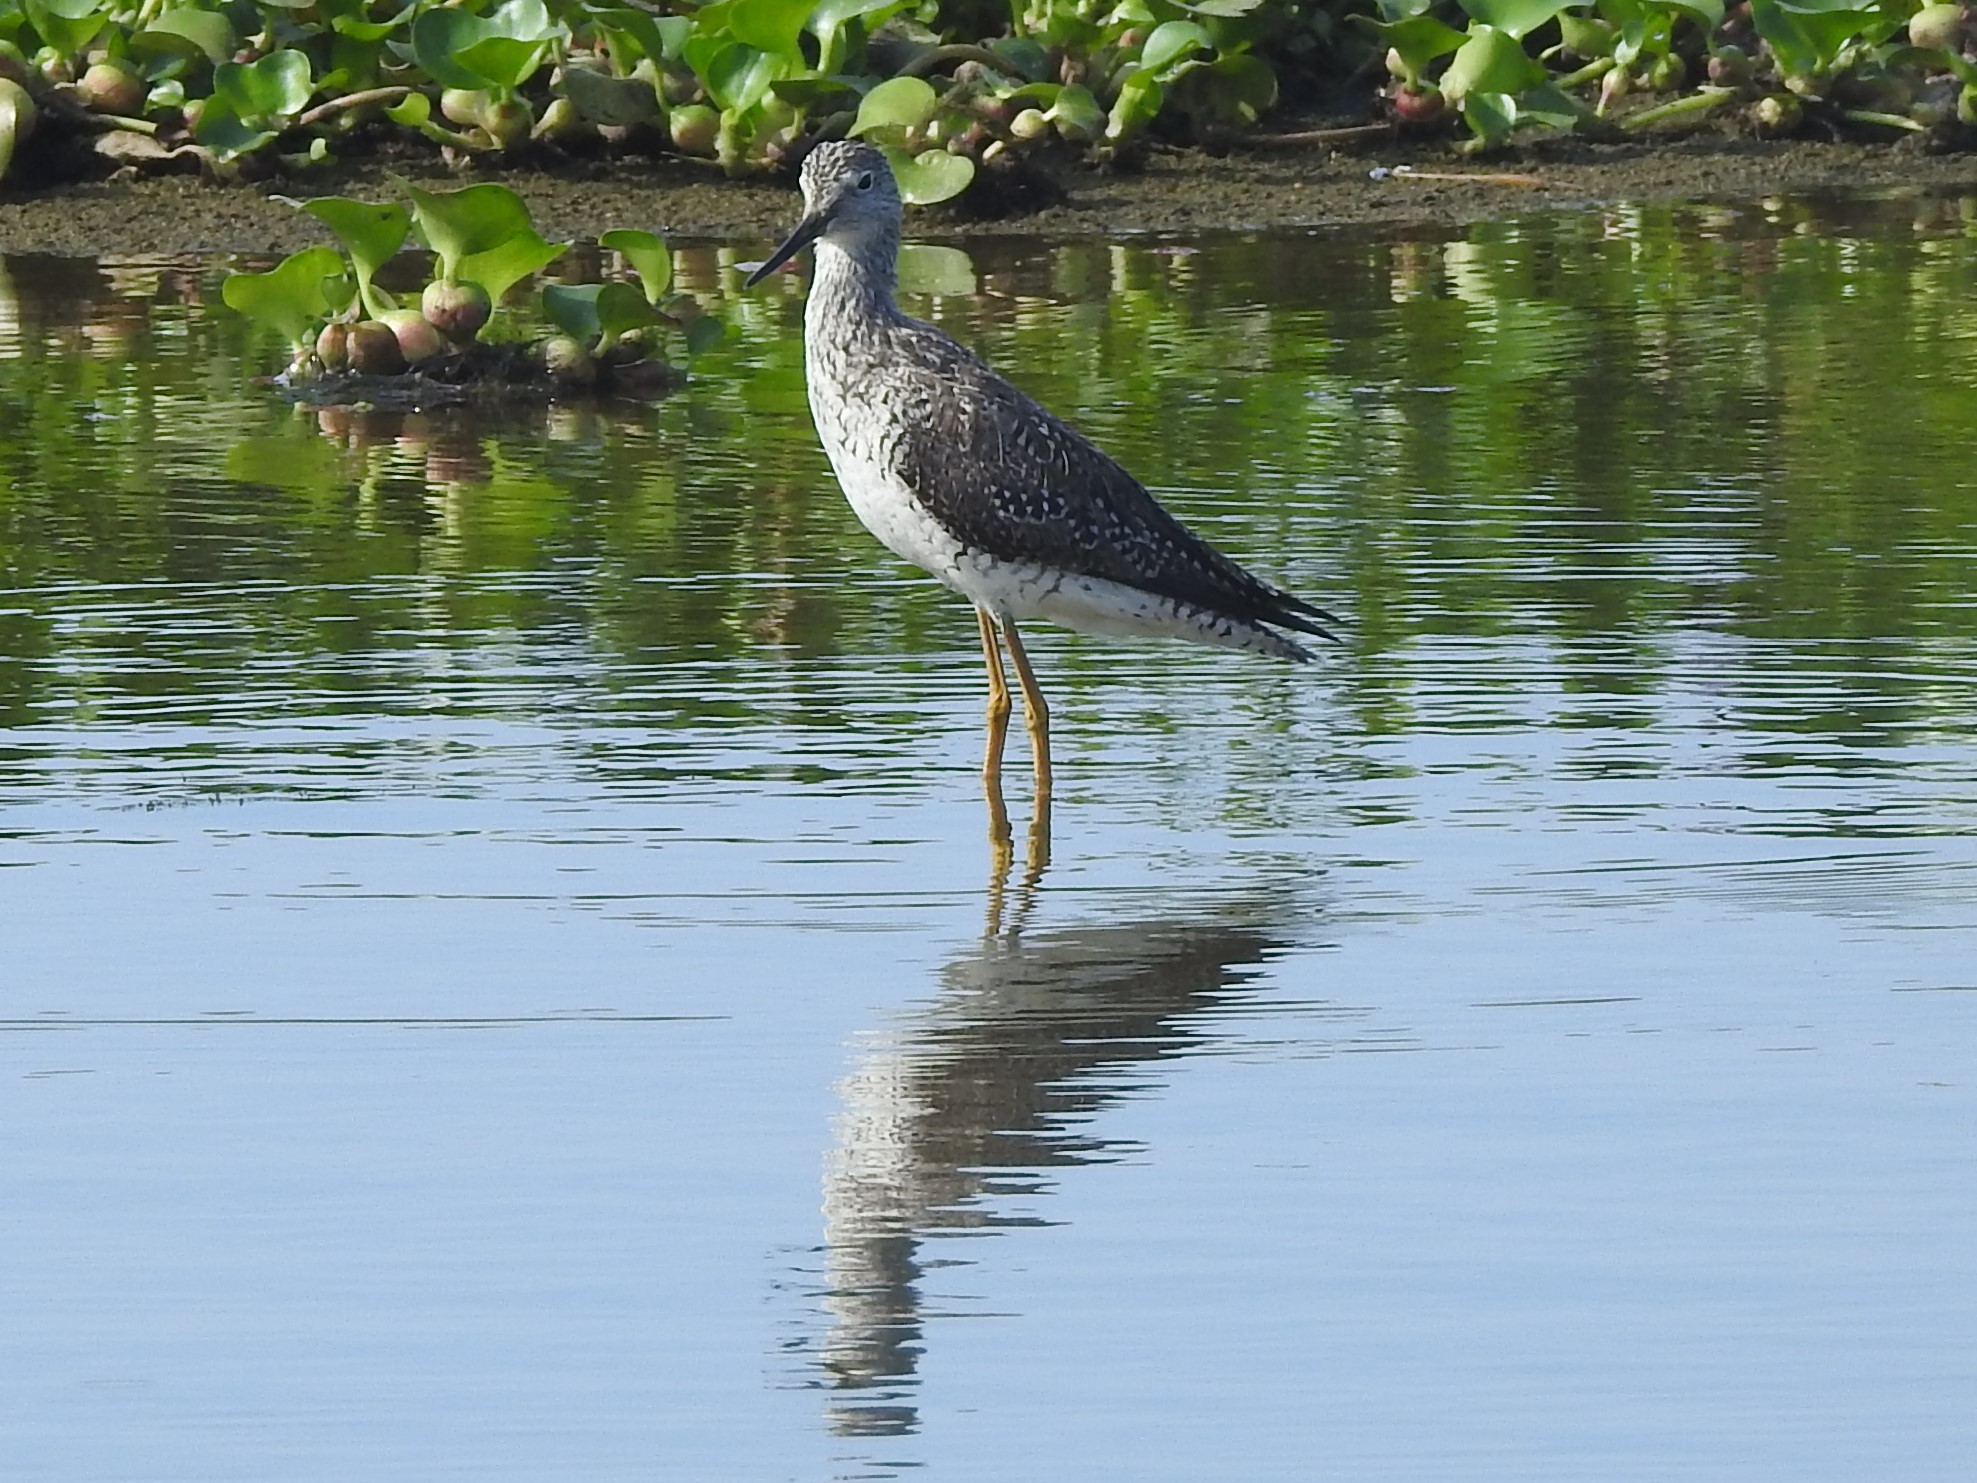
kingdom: Animalia
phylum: Chordata
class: Aves
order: Charadriiformes
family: Scolopacidae
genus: Tringa
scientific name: Tringa melanoleuca
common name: Greater yellowlegs
